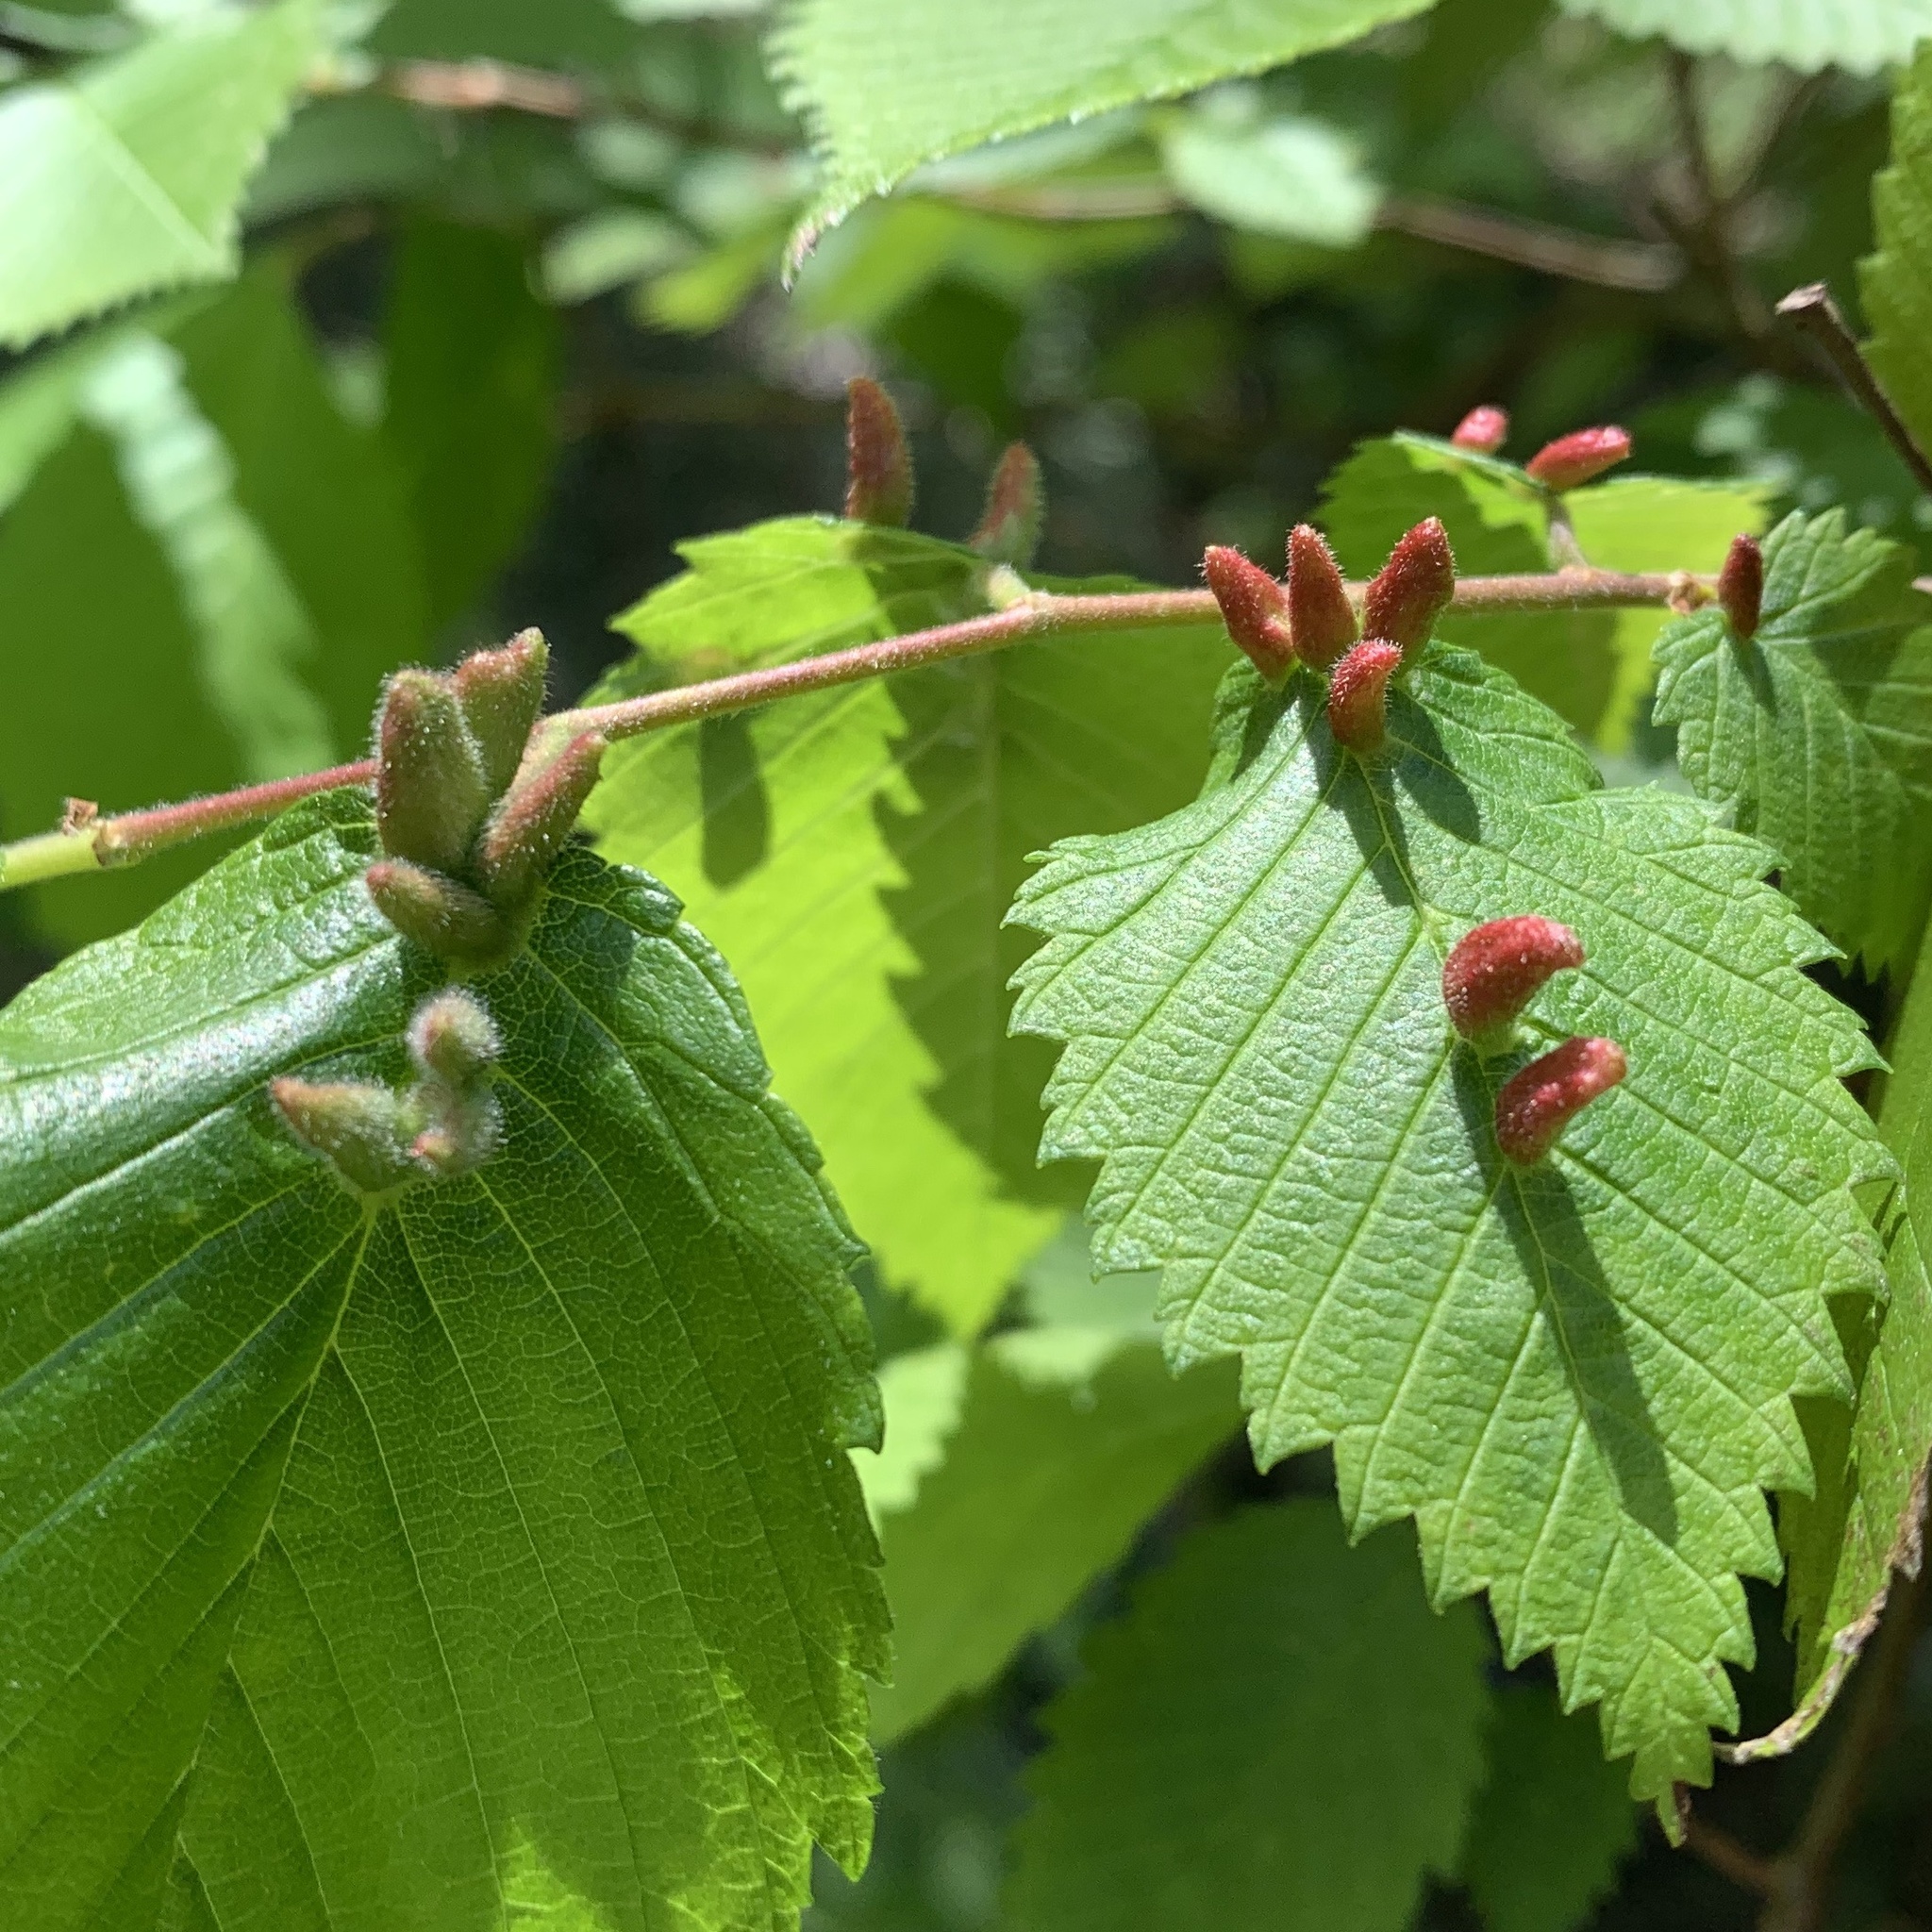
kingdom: Animalia
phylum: Arthropoda
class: Arachnida
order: Trombidiformes
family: Eriophyidae
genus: Aceria
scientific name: Aceria
